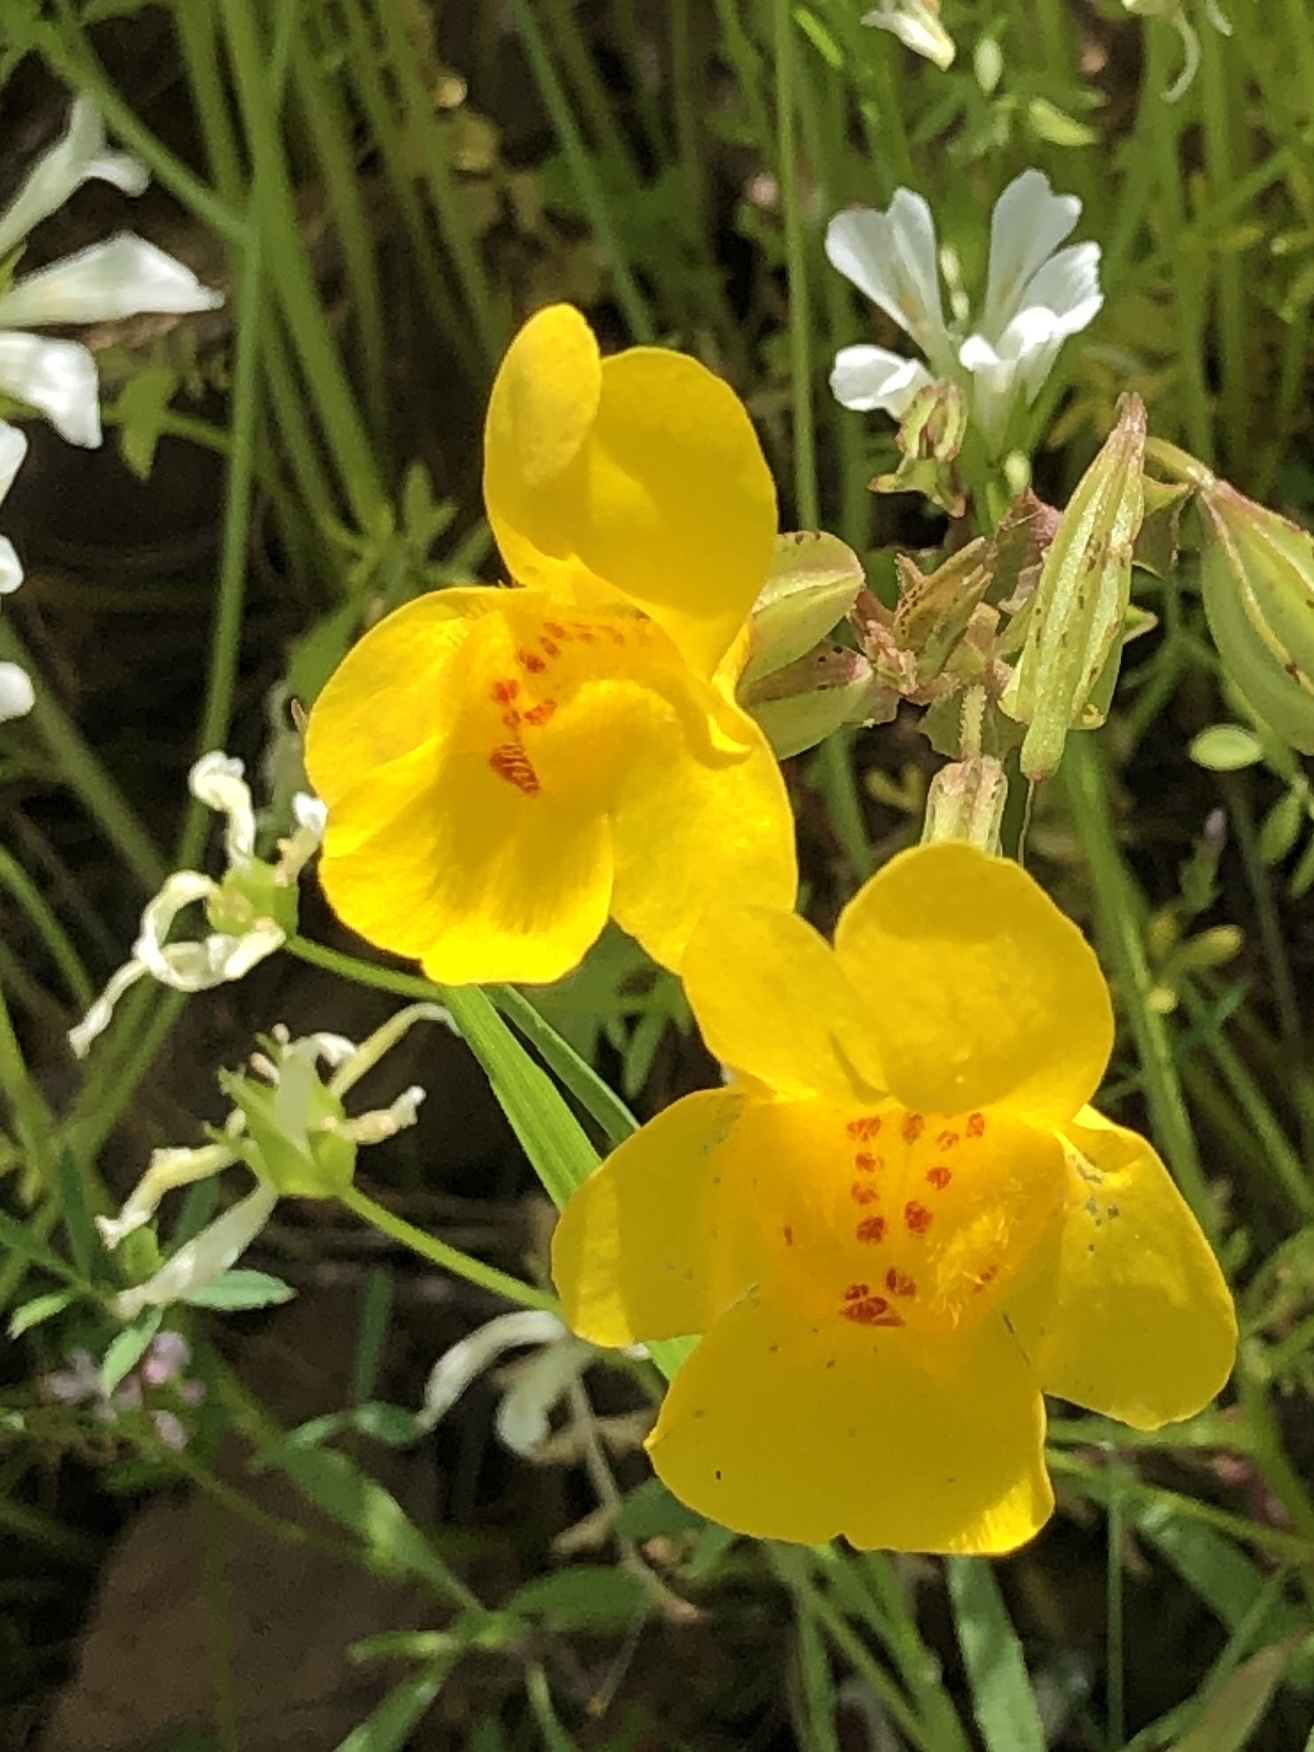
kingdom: Plantae
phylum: Tracheophyta
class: Magnoliopsida
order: Lamiales
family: Phrymaceae
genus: Erythranthe
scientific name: Erythranthe guttata
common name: Monkeyflower
